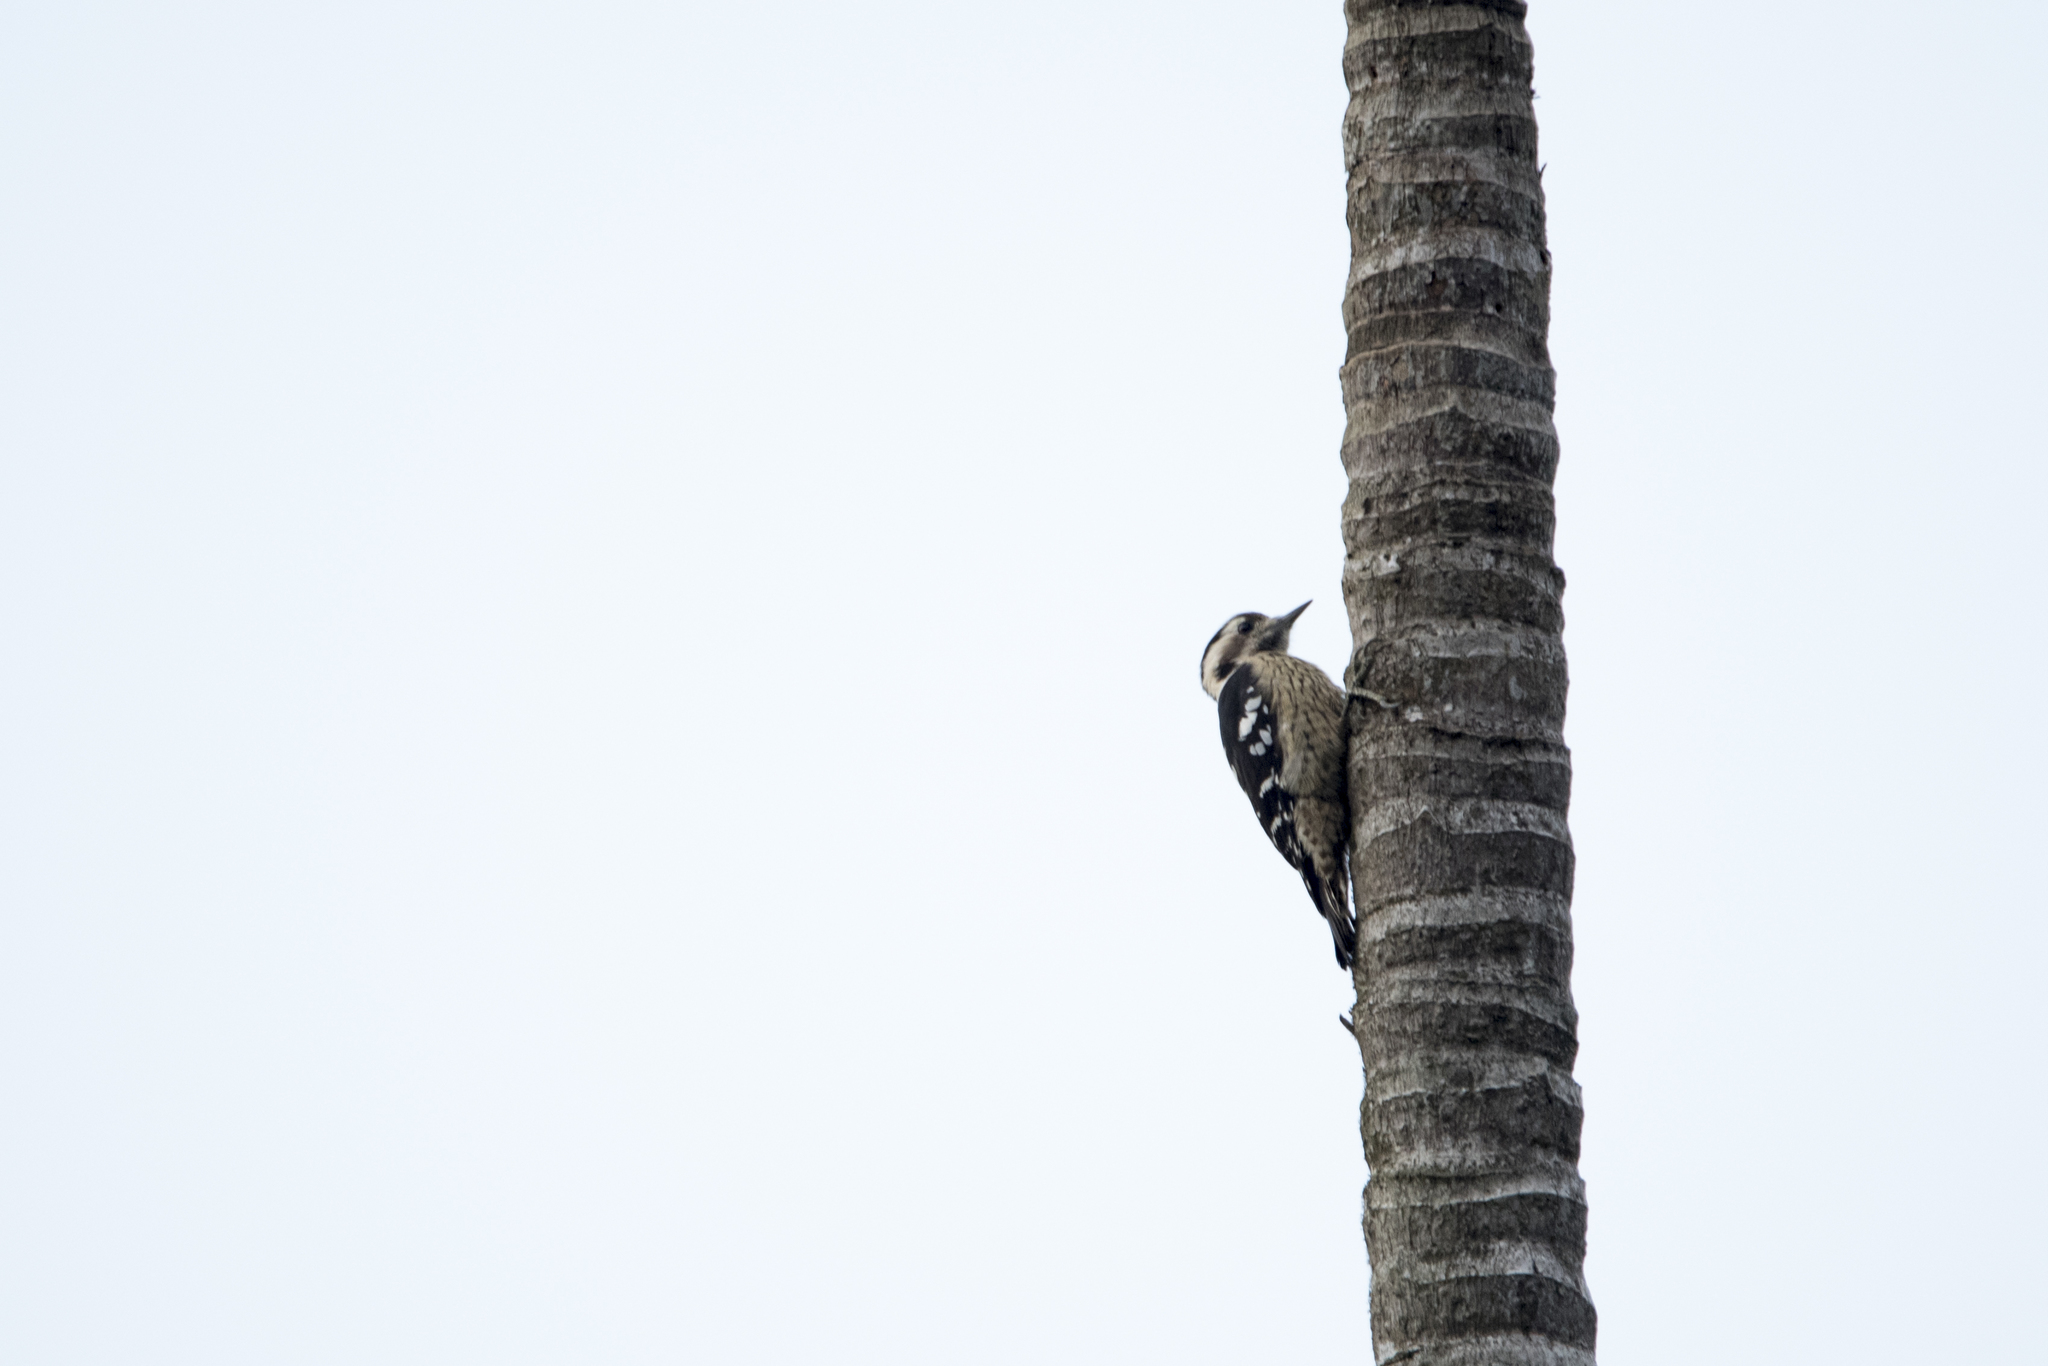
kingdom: Animalia
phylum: Chordata
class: Aves
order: Piciformes
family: Picidae
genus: Yungipicus
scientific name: Yungipicus canicapillus
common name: Grey-capped pygmy woodpecker
